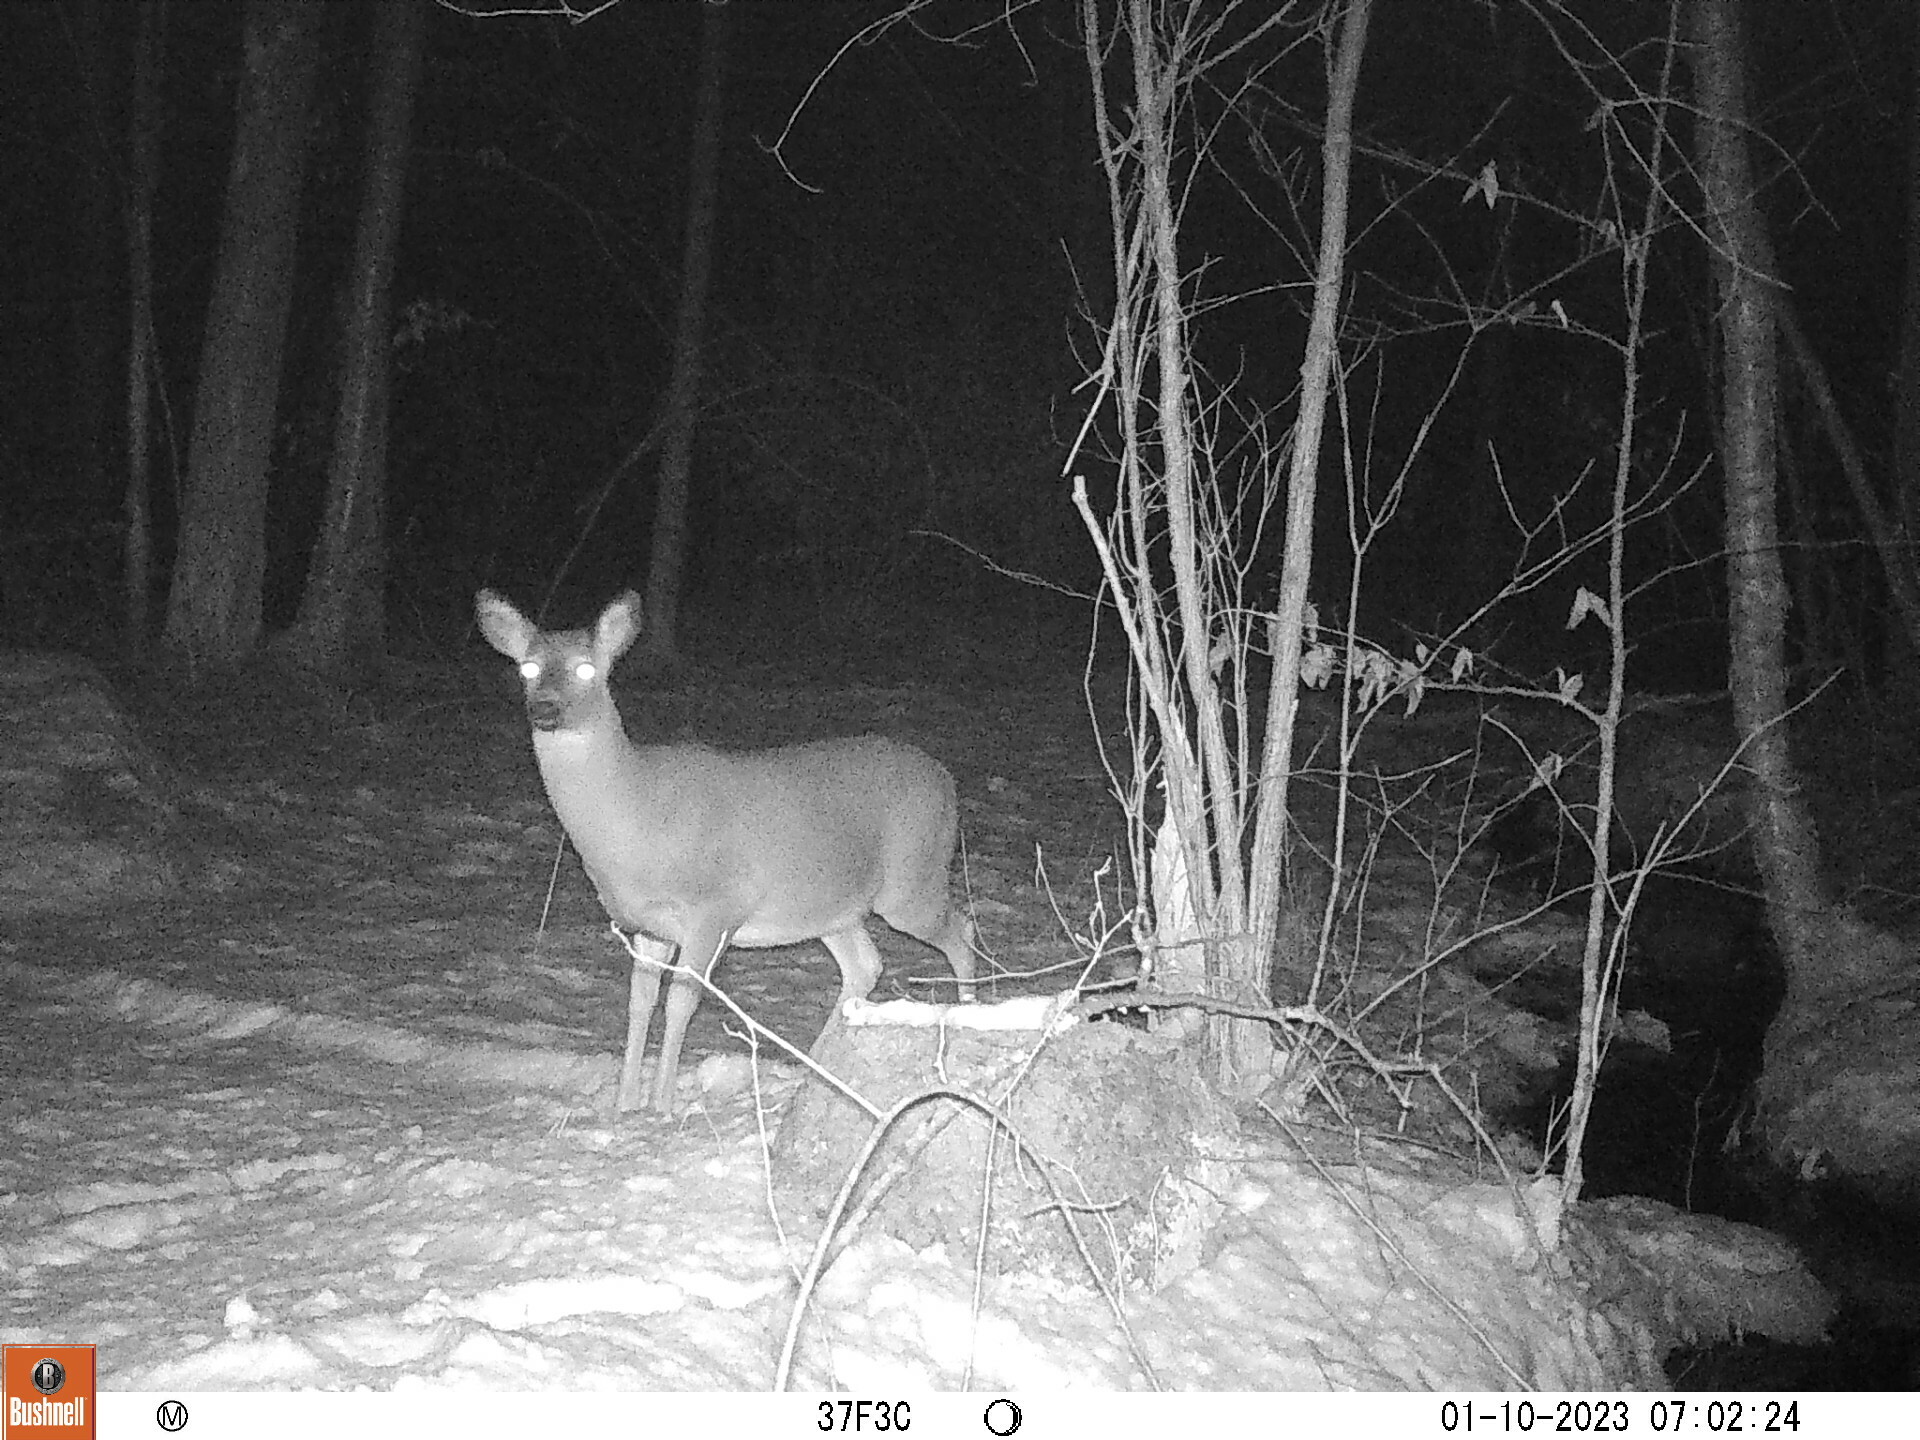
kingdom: Animalia
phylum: Chordata
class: Mammalia
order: Artiodactyla
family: Cervidae
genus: Odocoileus
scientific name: Odocoileus virginianus
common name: White-tailed deer
